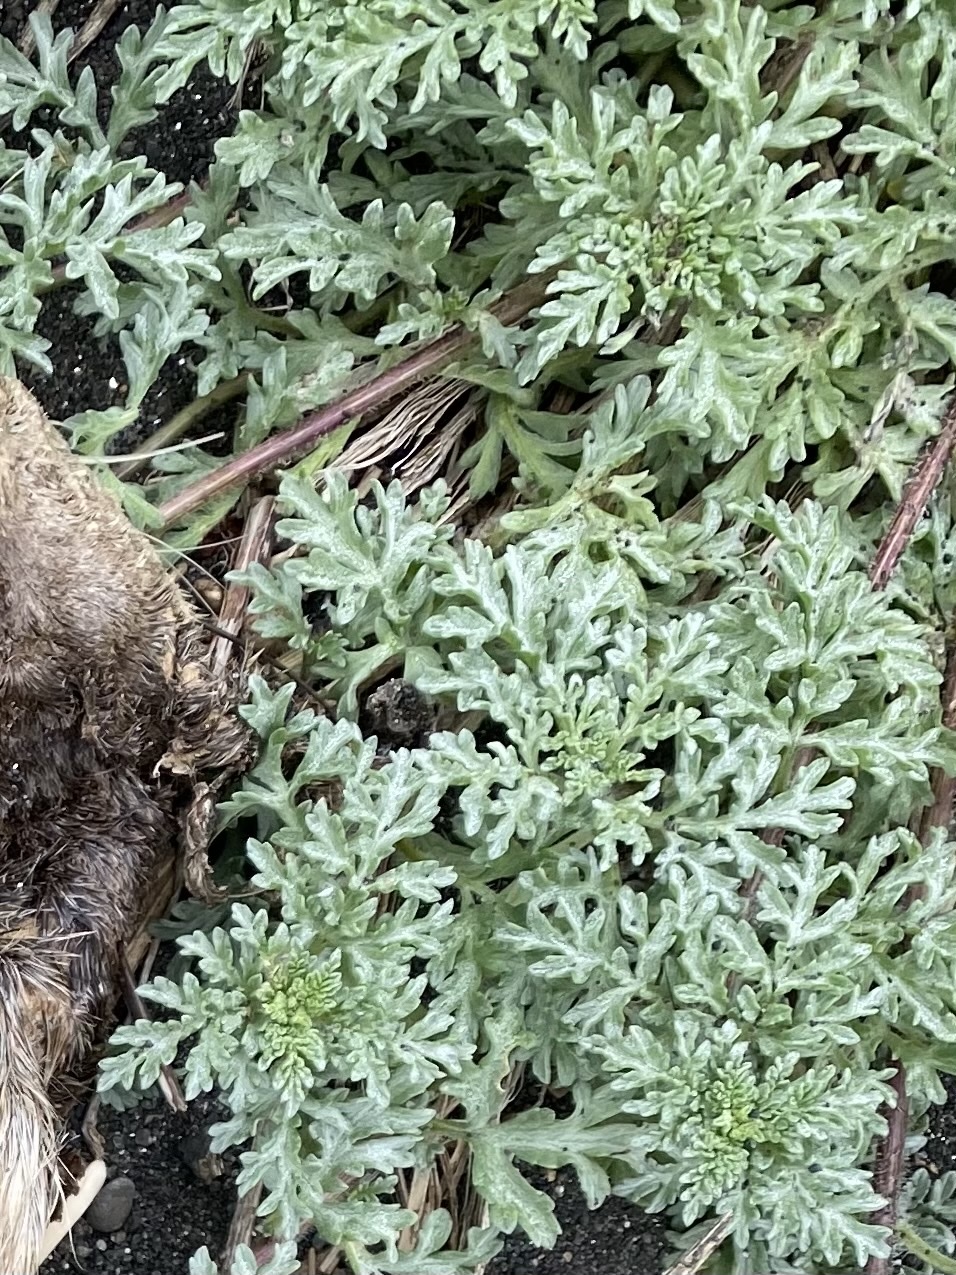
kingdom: Plantae
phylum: Tracheophyta
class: Magnoliopsida
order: Asterales
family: Asteraceae
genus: Ambrosia
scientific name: Ambrosia chamissonis
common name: Beachbur
